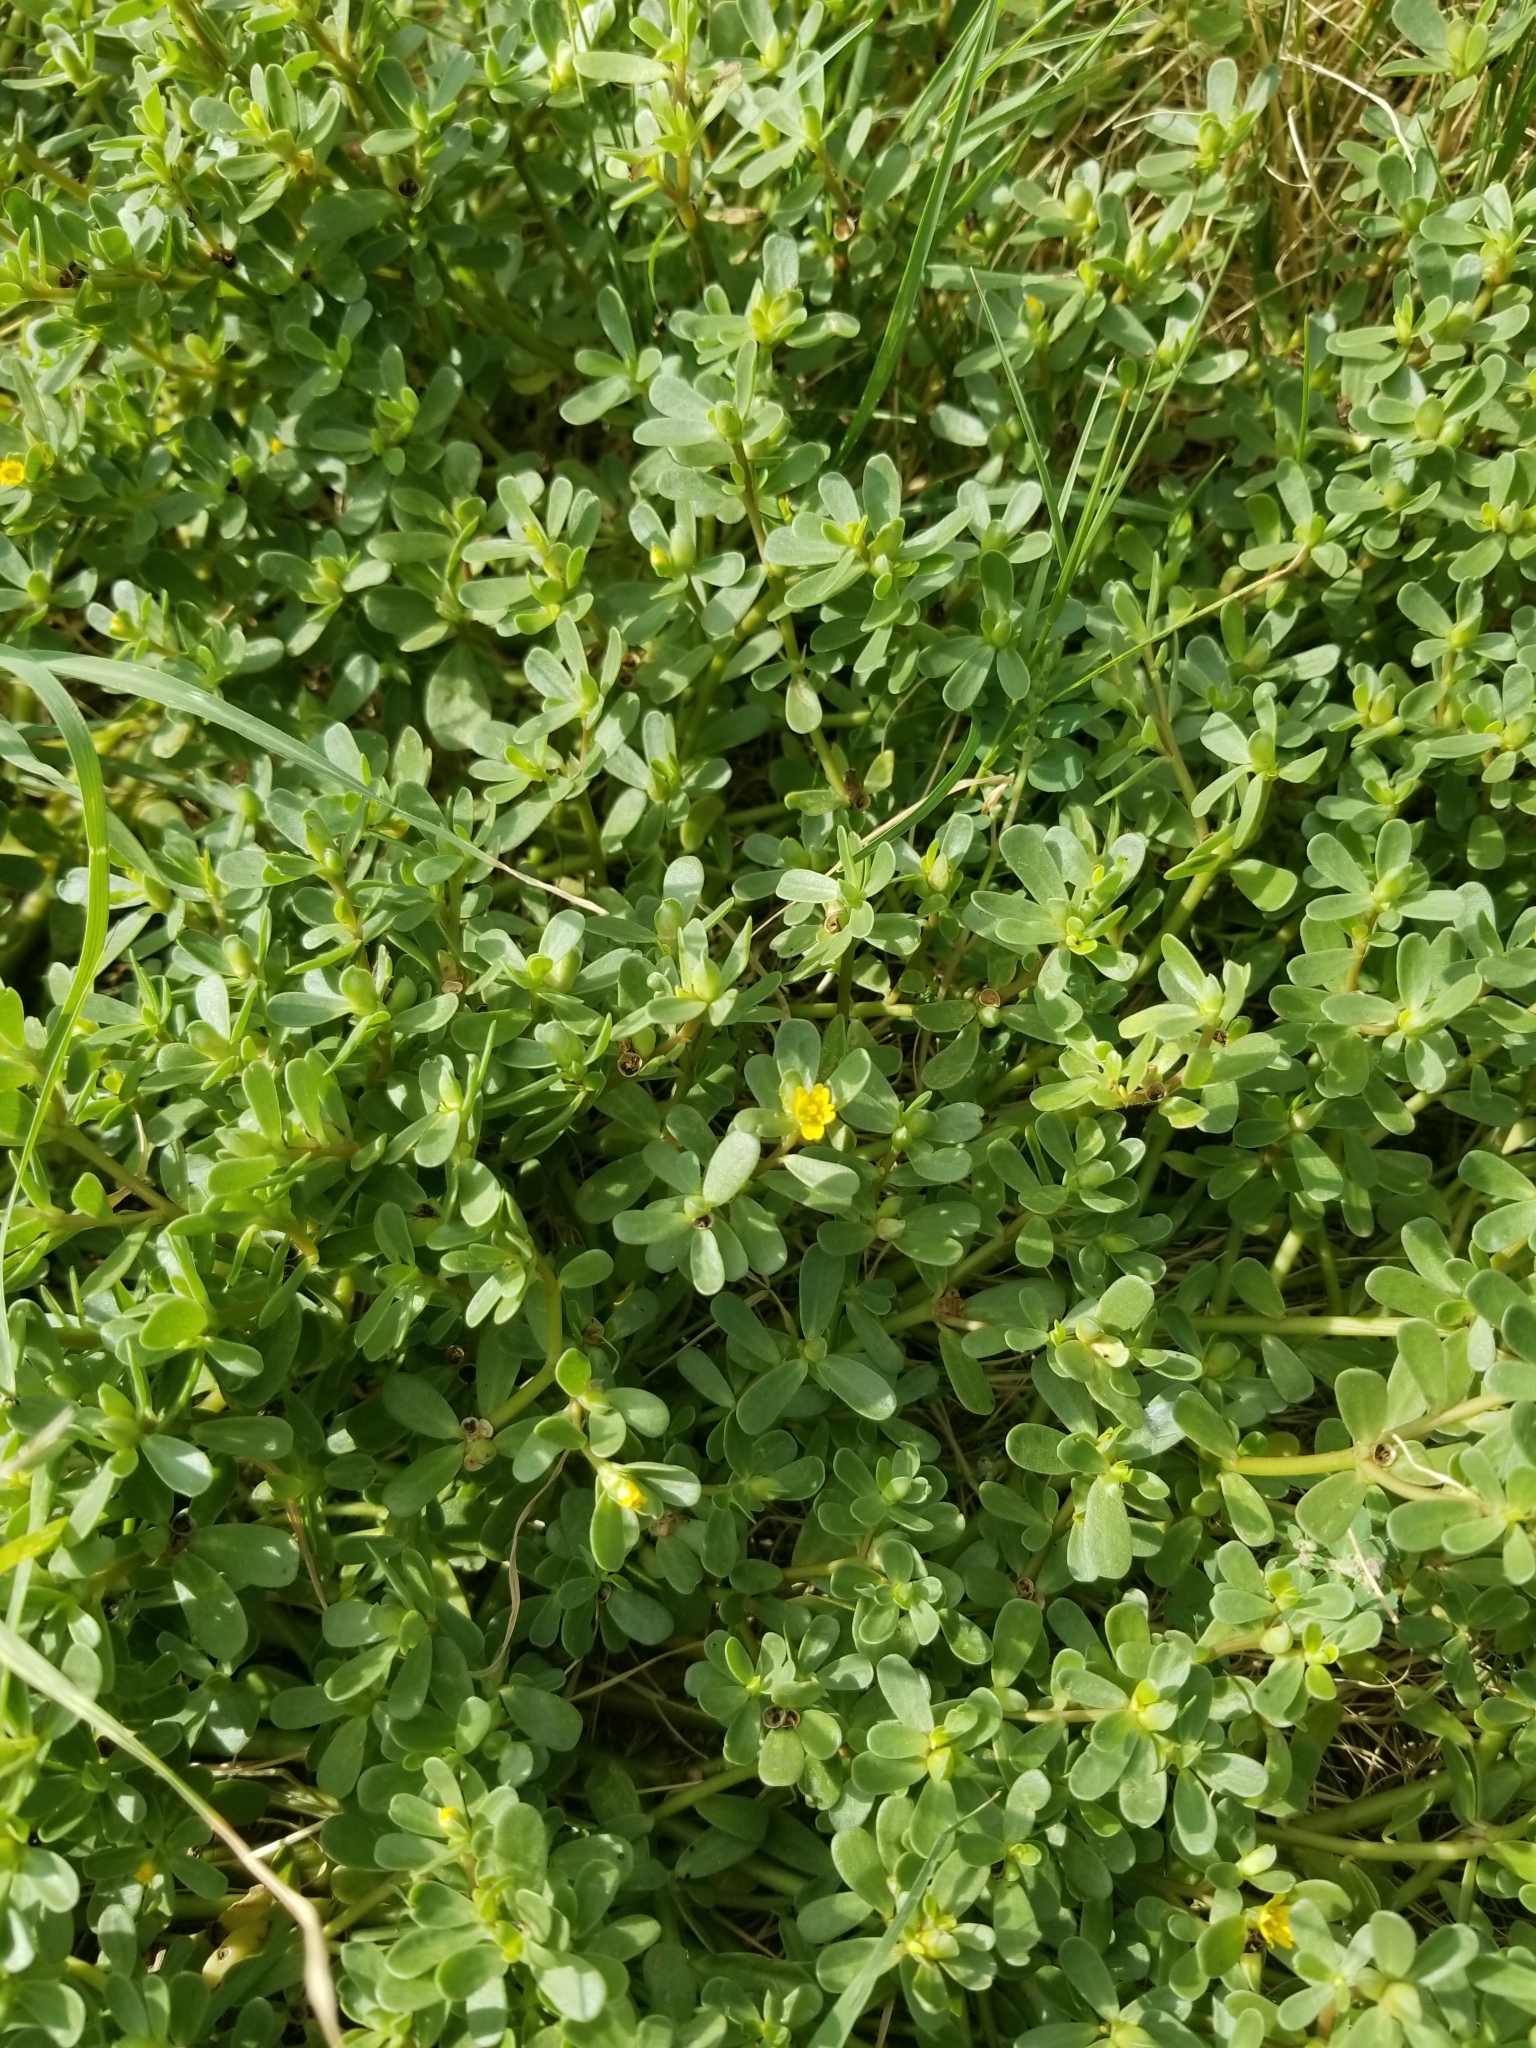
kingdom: Plantae
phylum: Tracheophyta
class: Magnoliopsida
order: Caryophyllales
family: Portulacaceae
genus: Portulaca
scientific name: Portulaca oleracea
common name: Common purslane
